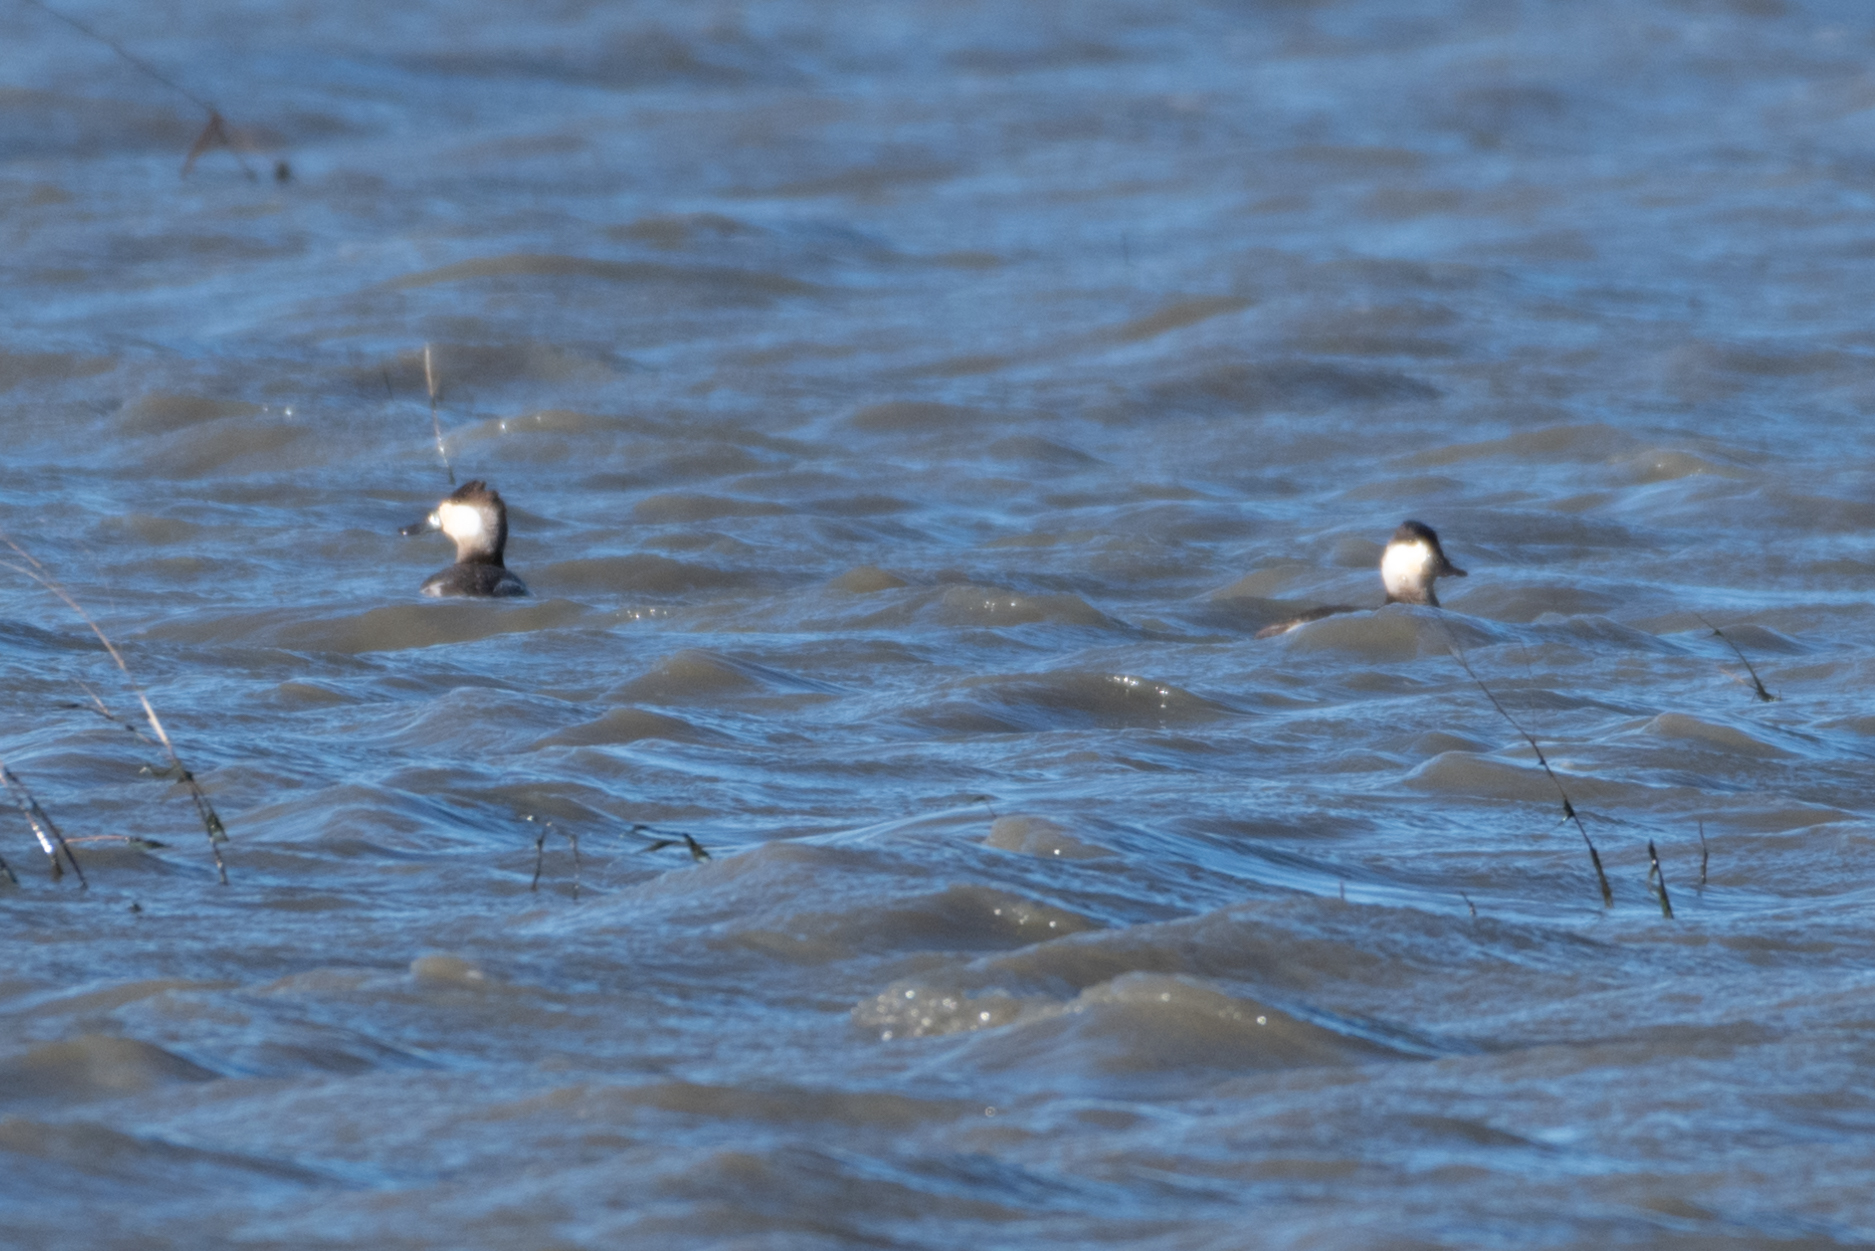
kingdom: Animalia
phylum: Chordata
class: Aves
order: Anseriformes
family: Anatidae
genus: Oxyura
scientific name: Oxyura jamaicensis
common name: Ruddy duck
